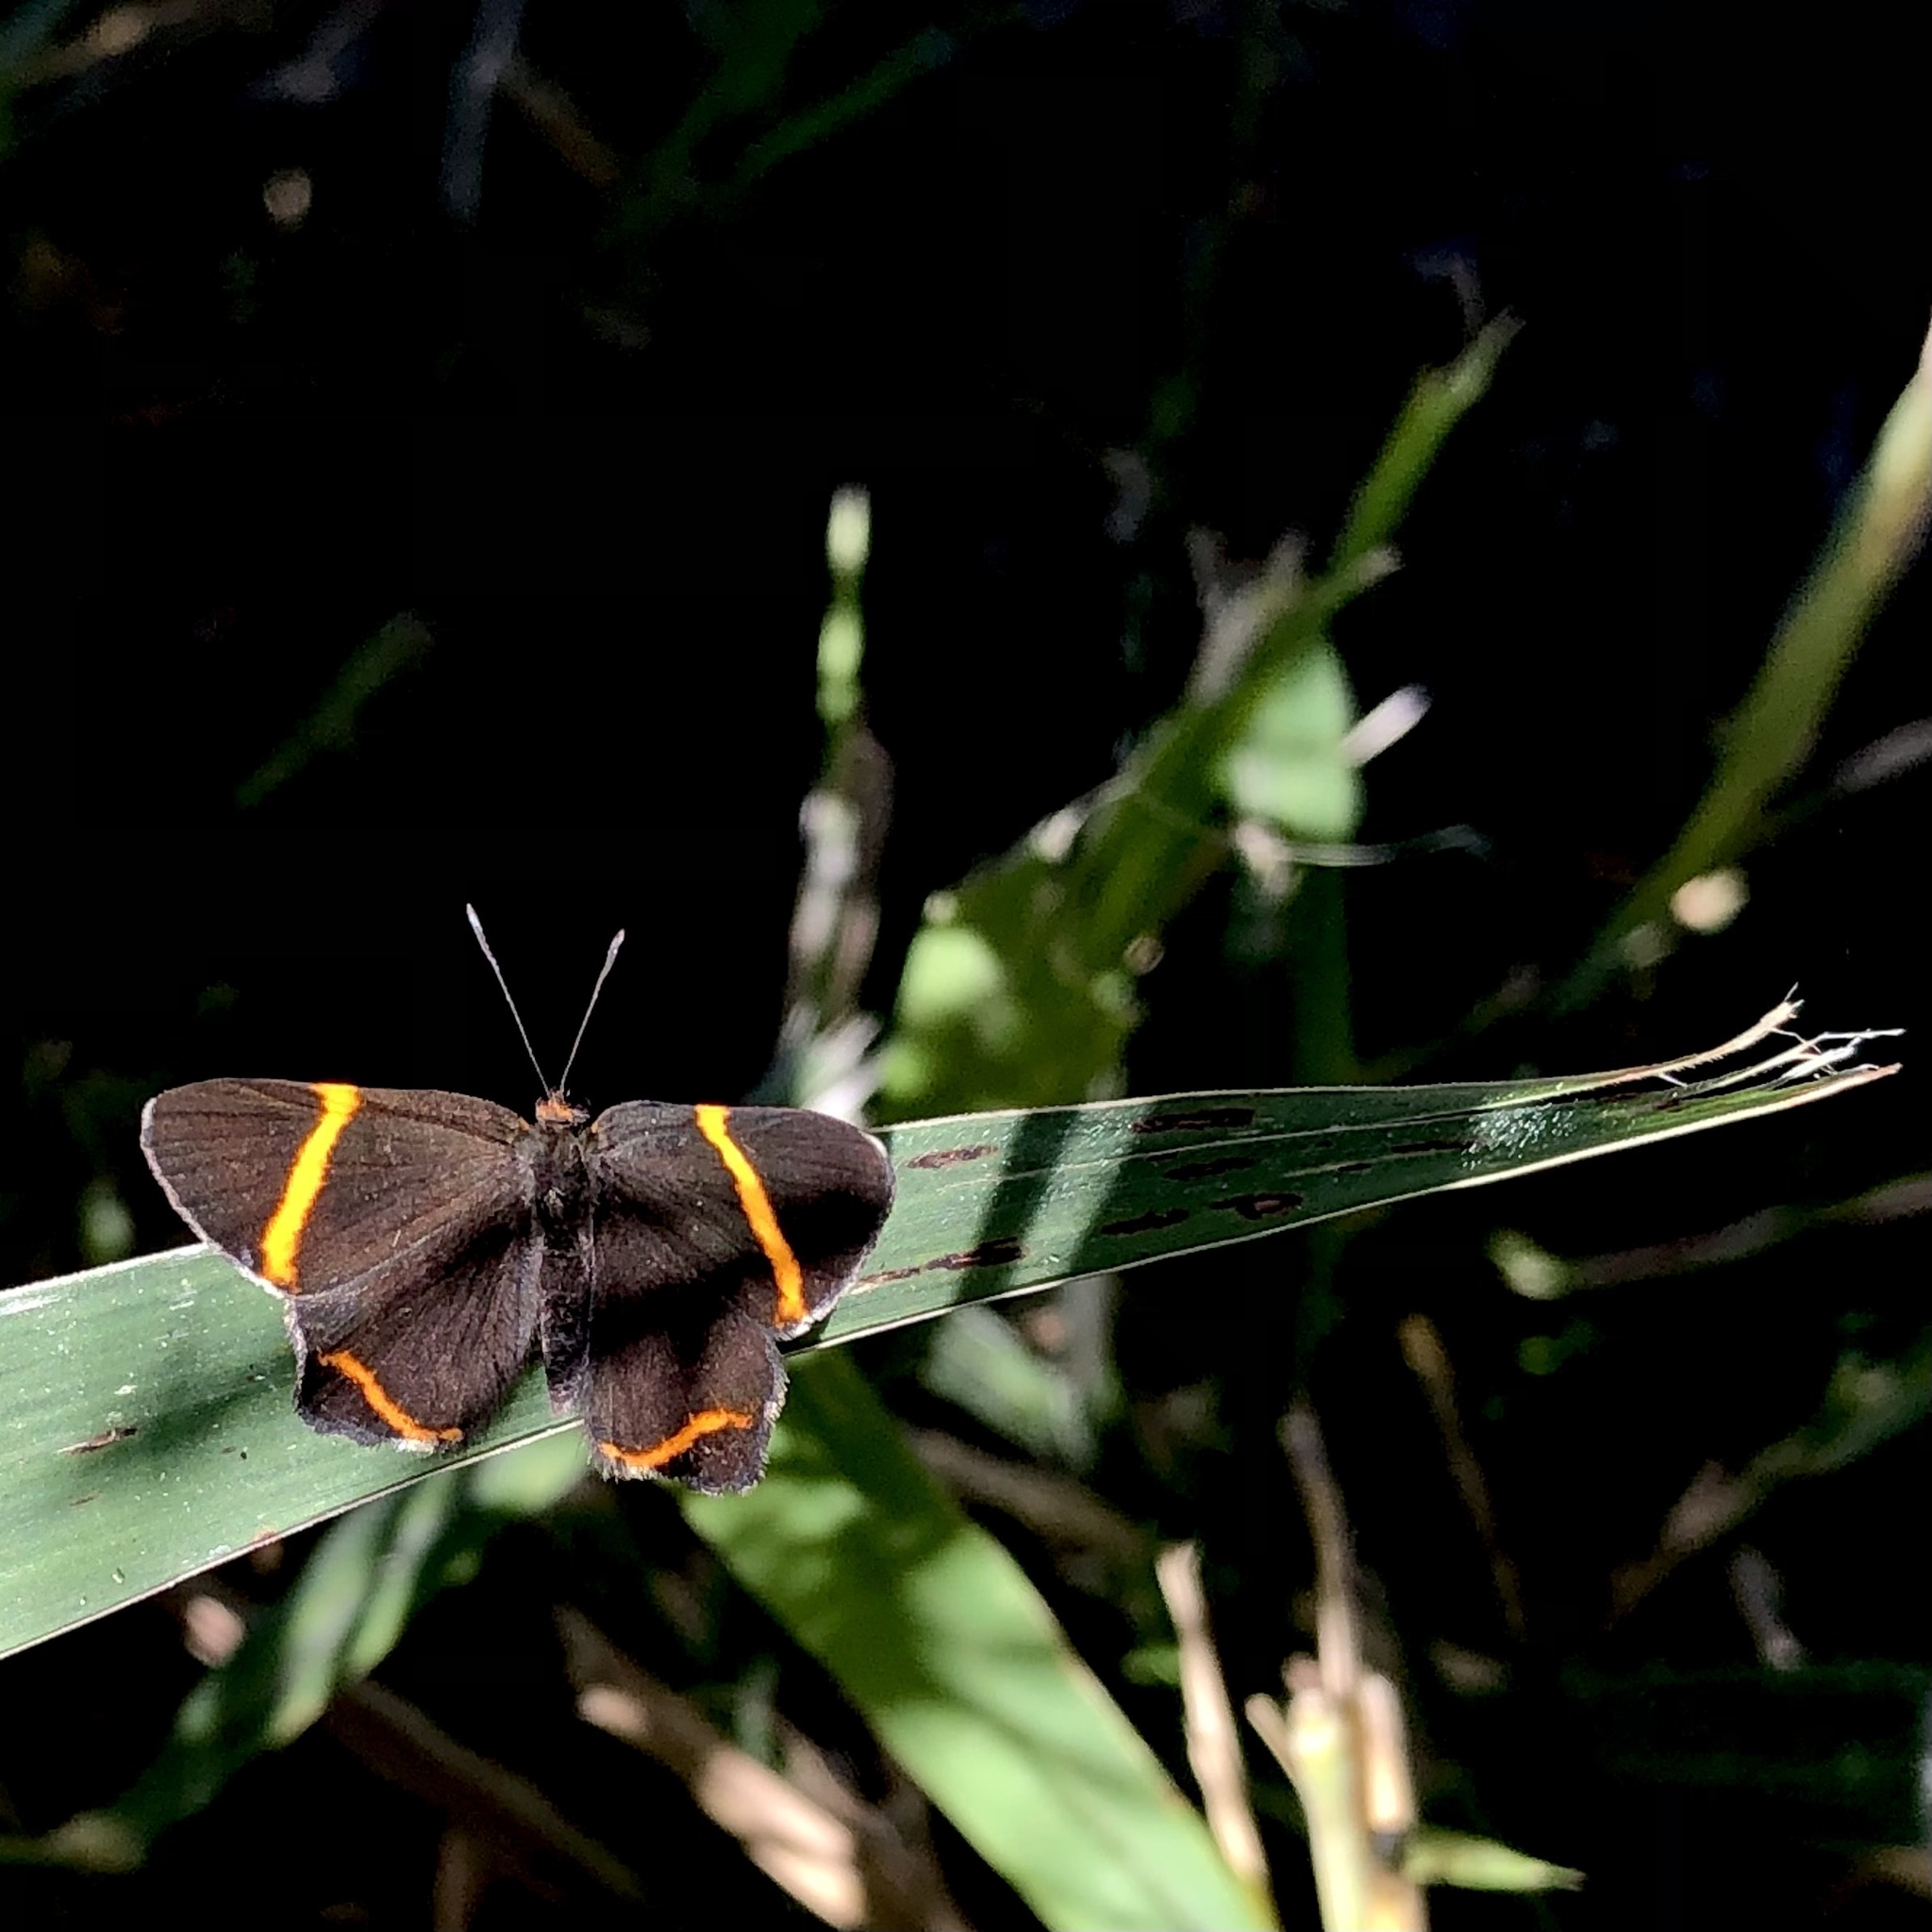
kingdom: Animalia
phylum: Arthropoda
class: Insecta
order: Lepidoptera
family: Riodinidae
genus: Riodina
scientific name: Riodina lysippoides
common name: Little dancer metalmark
